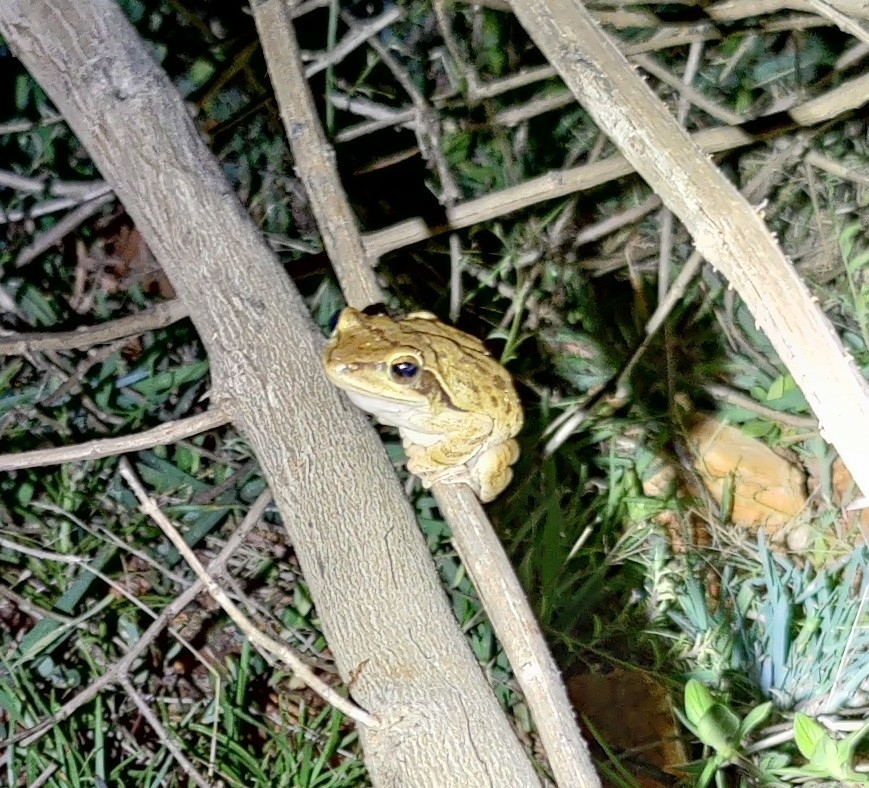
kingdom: Animalia
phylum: Chordata
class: Amphibia
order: Anura
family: Rhacophoridae
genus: Polypedates
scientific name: Polypedates maculatus
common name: Himalayan tree frog
